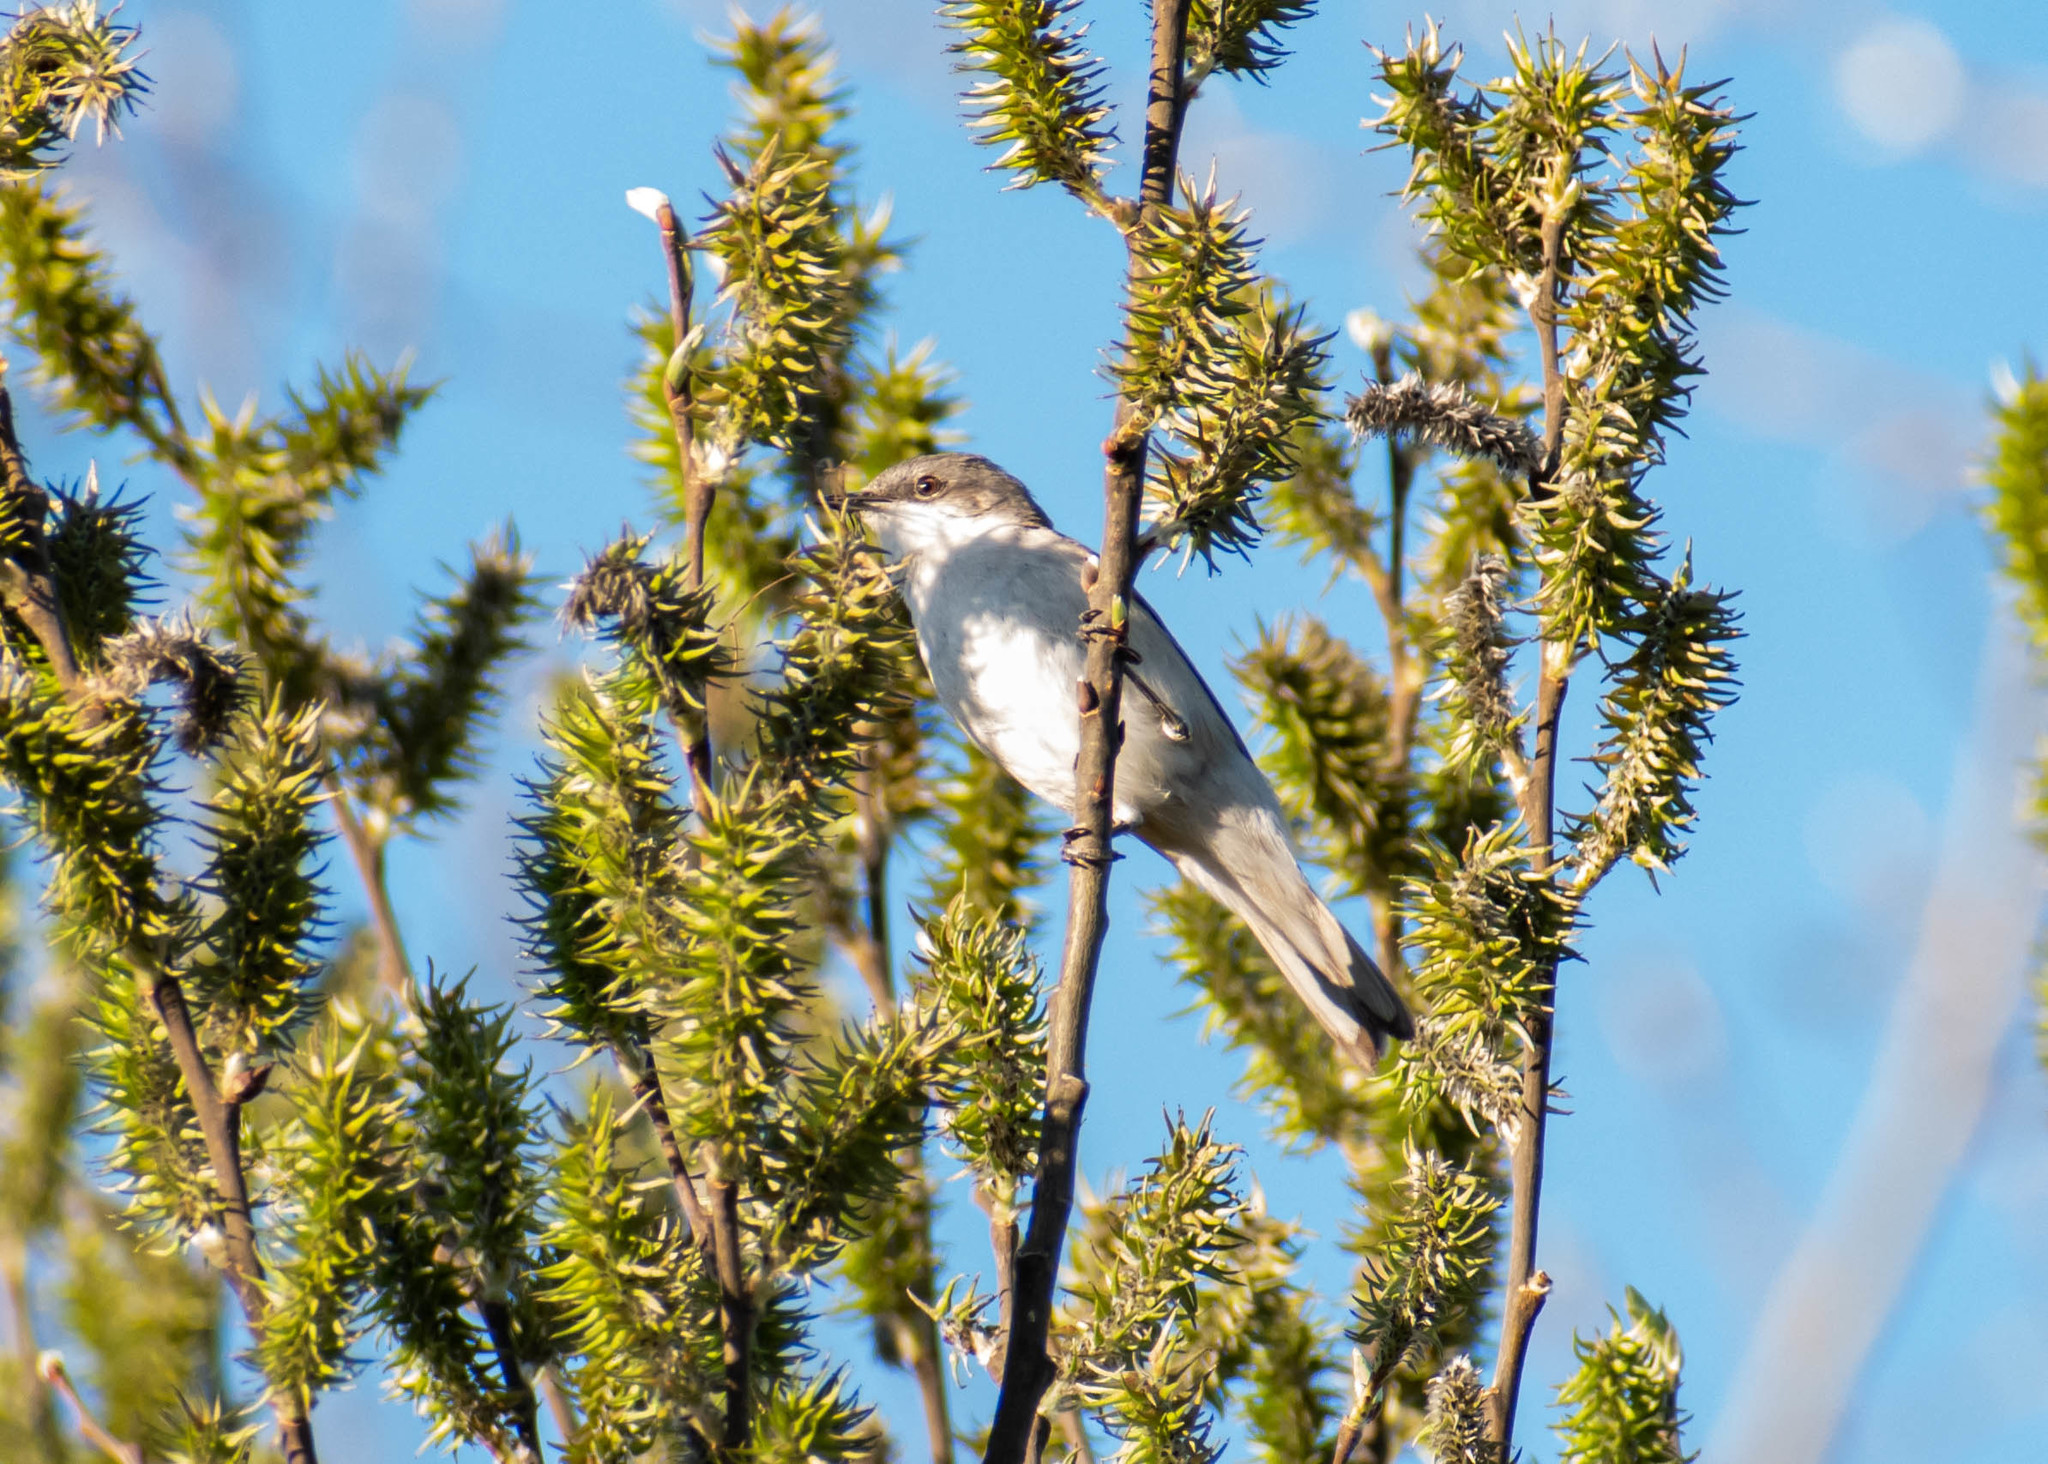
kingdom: Animalia
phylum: Chordata
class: Aves
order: Passeriformes
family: Sylviidae
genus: Sylvia
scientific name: Sylvia curruca
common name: Lesser whitethroat
